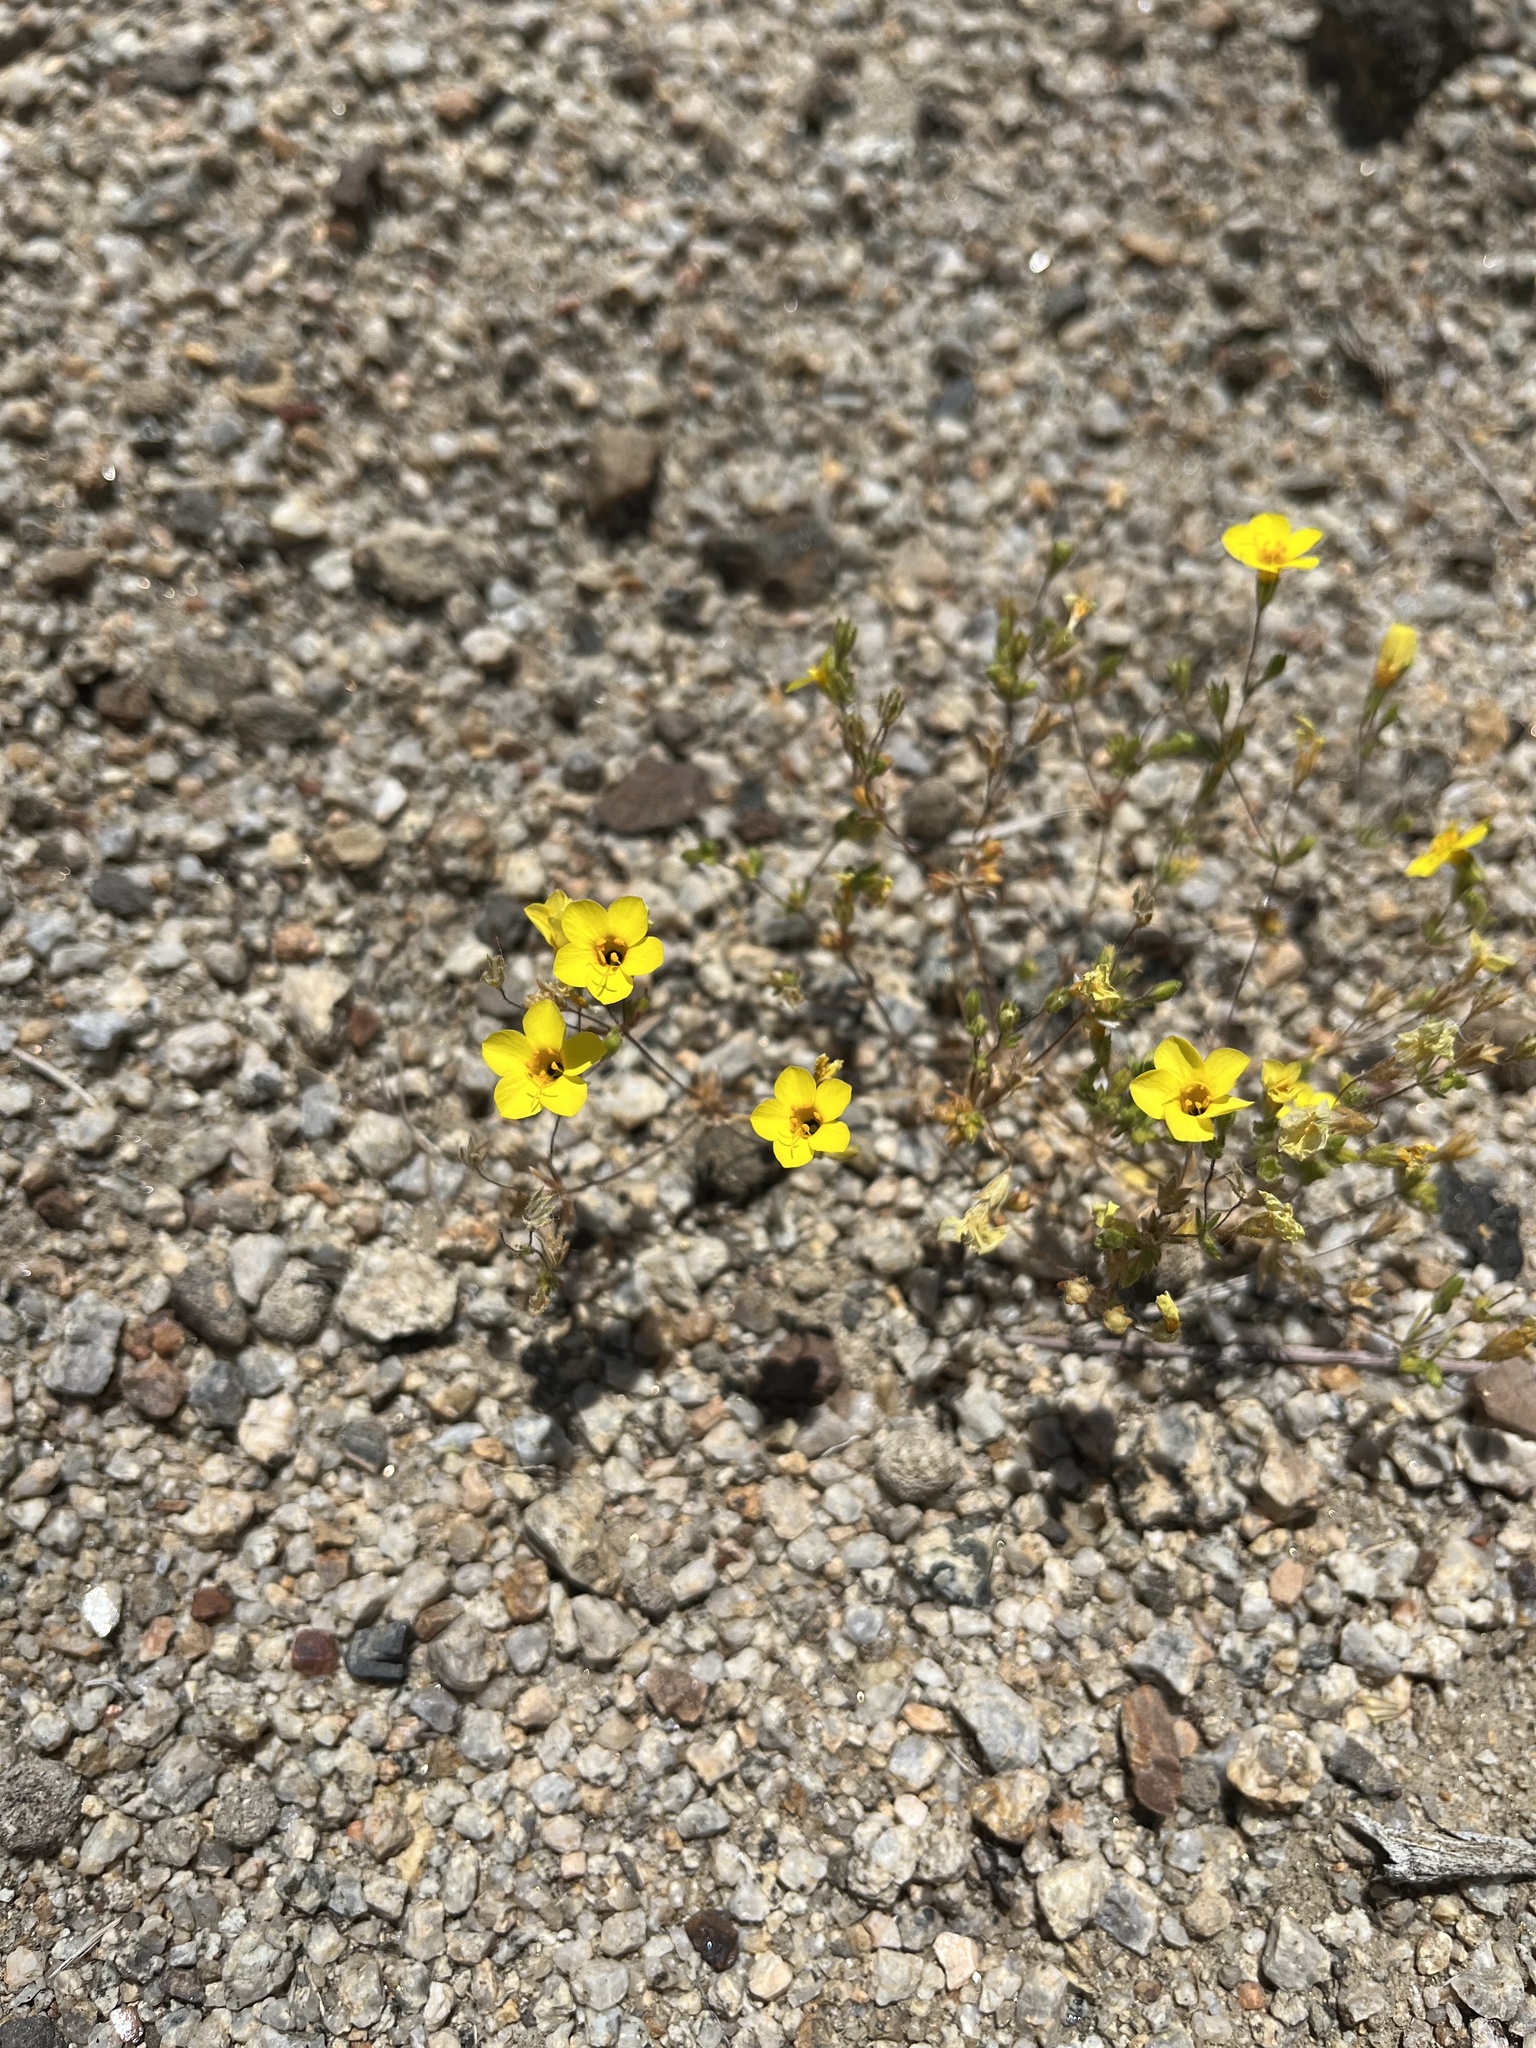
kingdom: Plantae
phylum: Tracheophyta
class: Magnoliopsida
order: Ericales
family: Polemoniaceae
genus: Leptosiphon
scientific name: Leptosiphon chrysanthus
